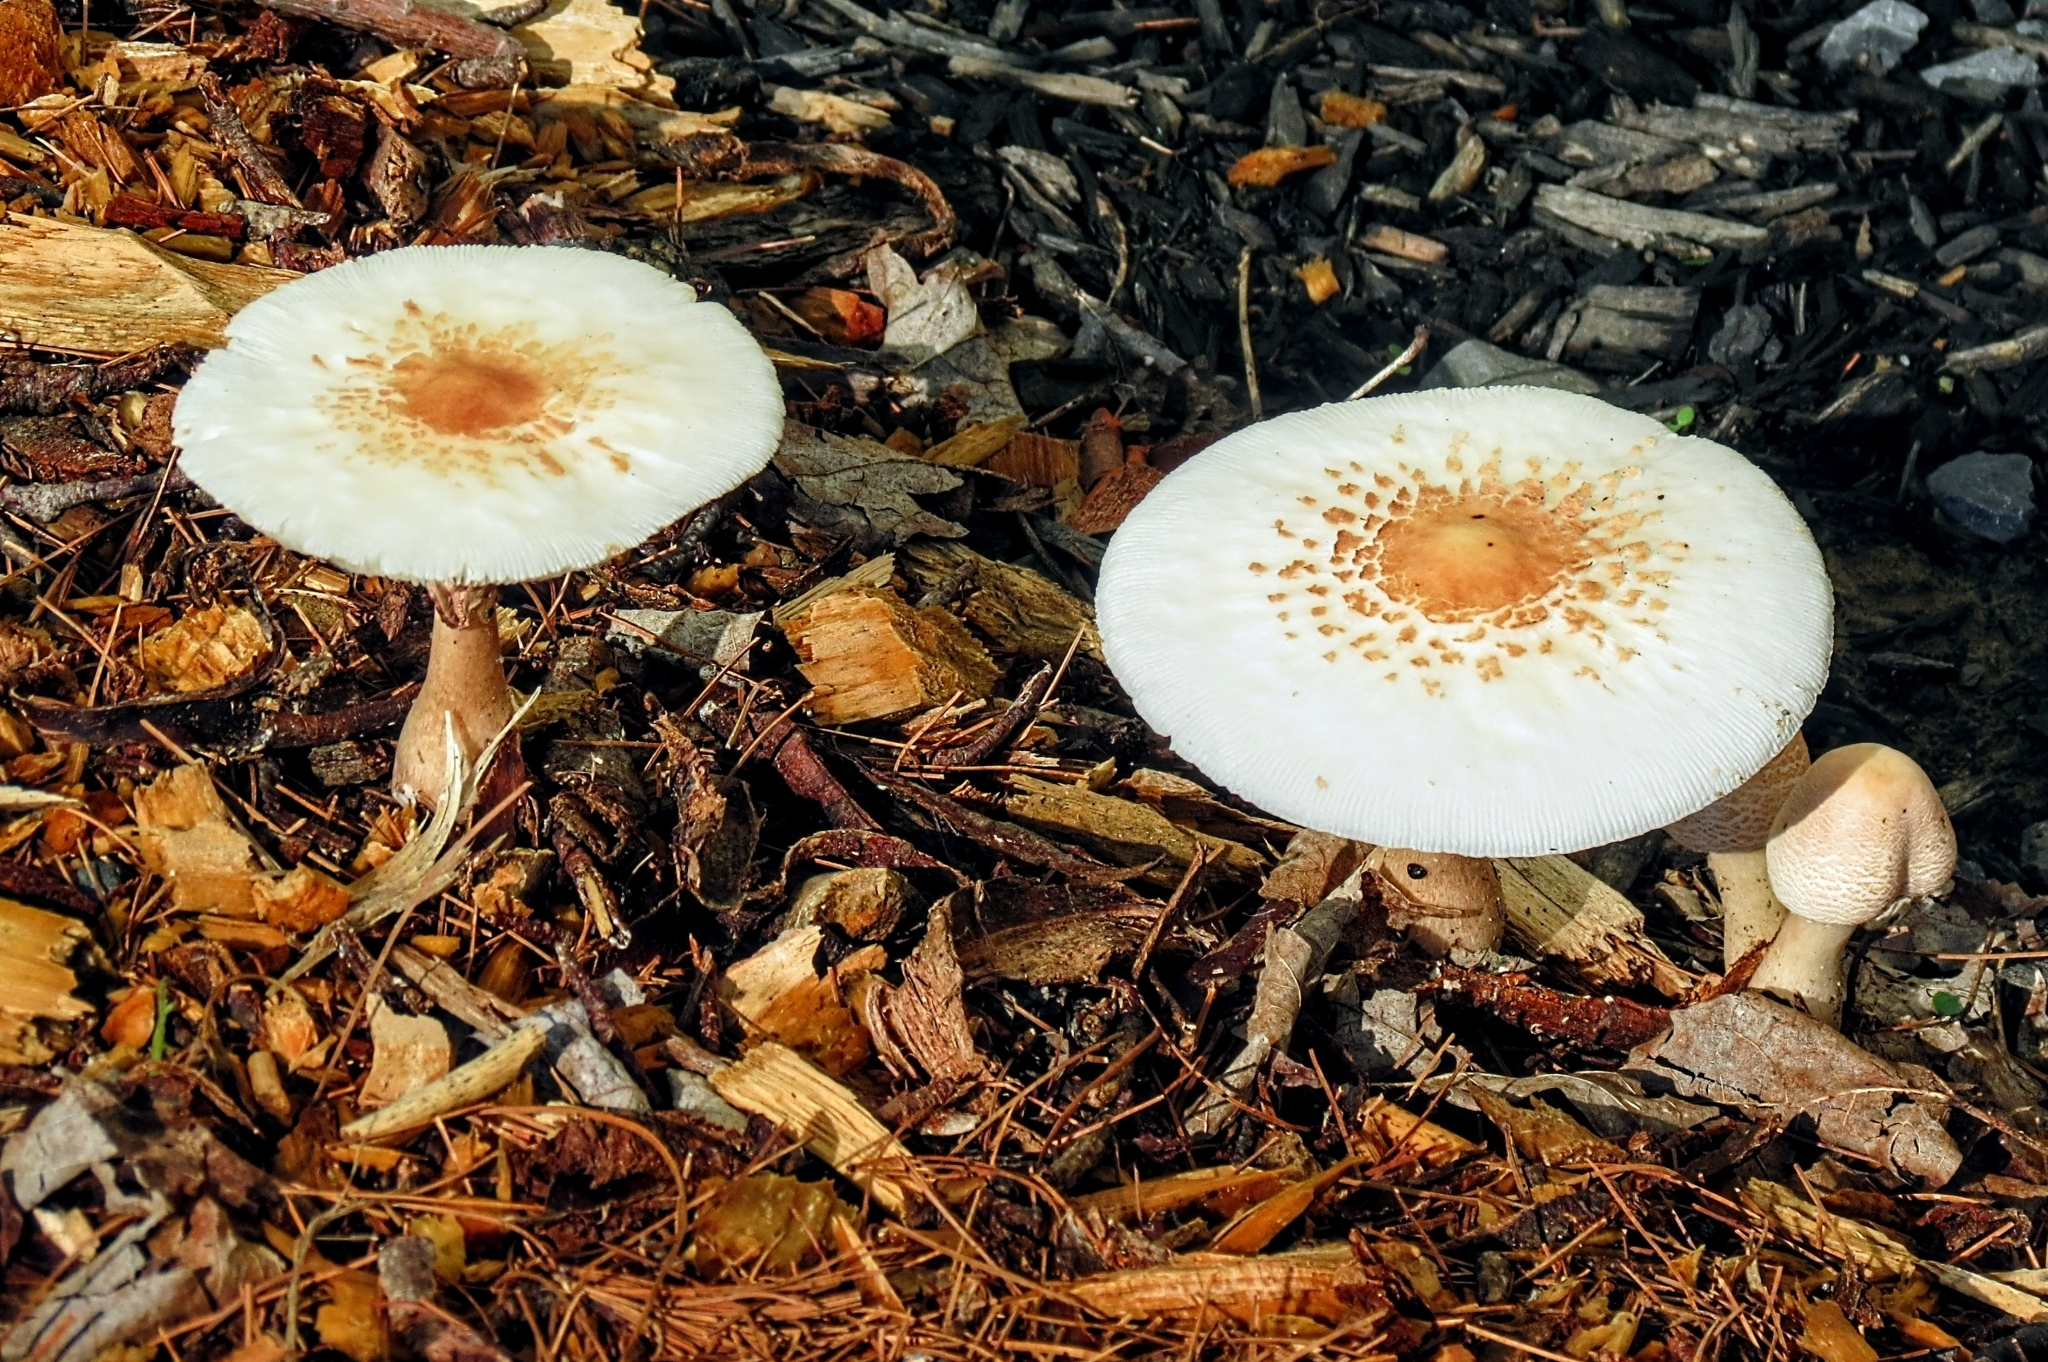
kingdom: Fungi
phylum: Basidiomycota
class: Agaricomycetes
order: Agaricales
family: Agaricaceae
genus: Leucoagaricus
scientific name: Leucoagaricus americanus
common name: Reddening lepiota
